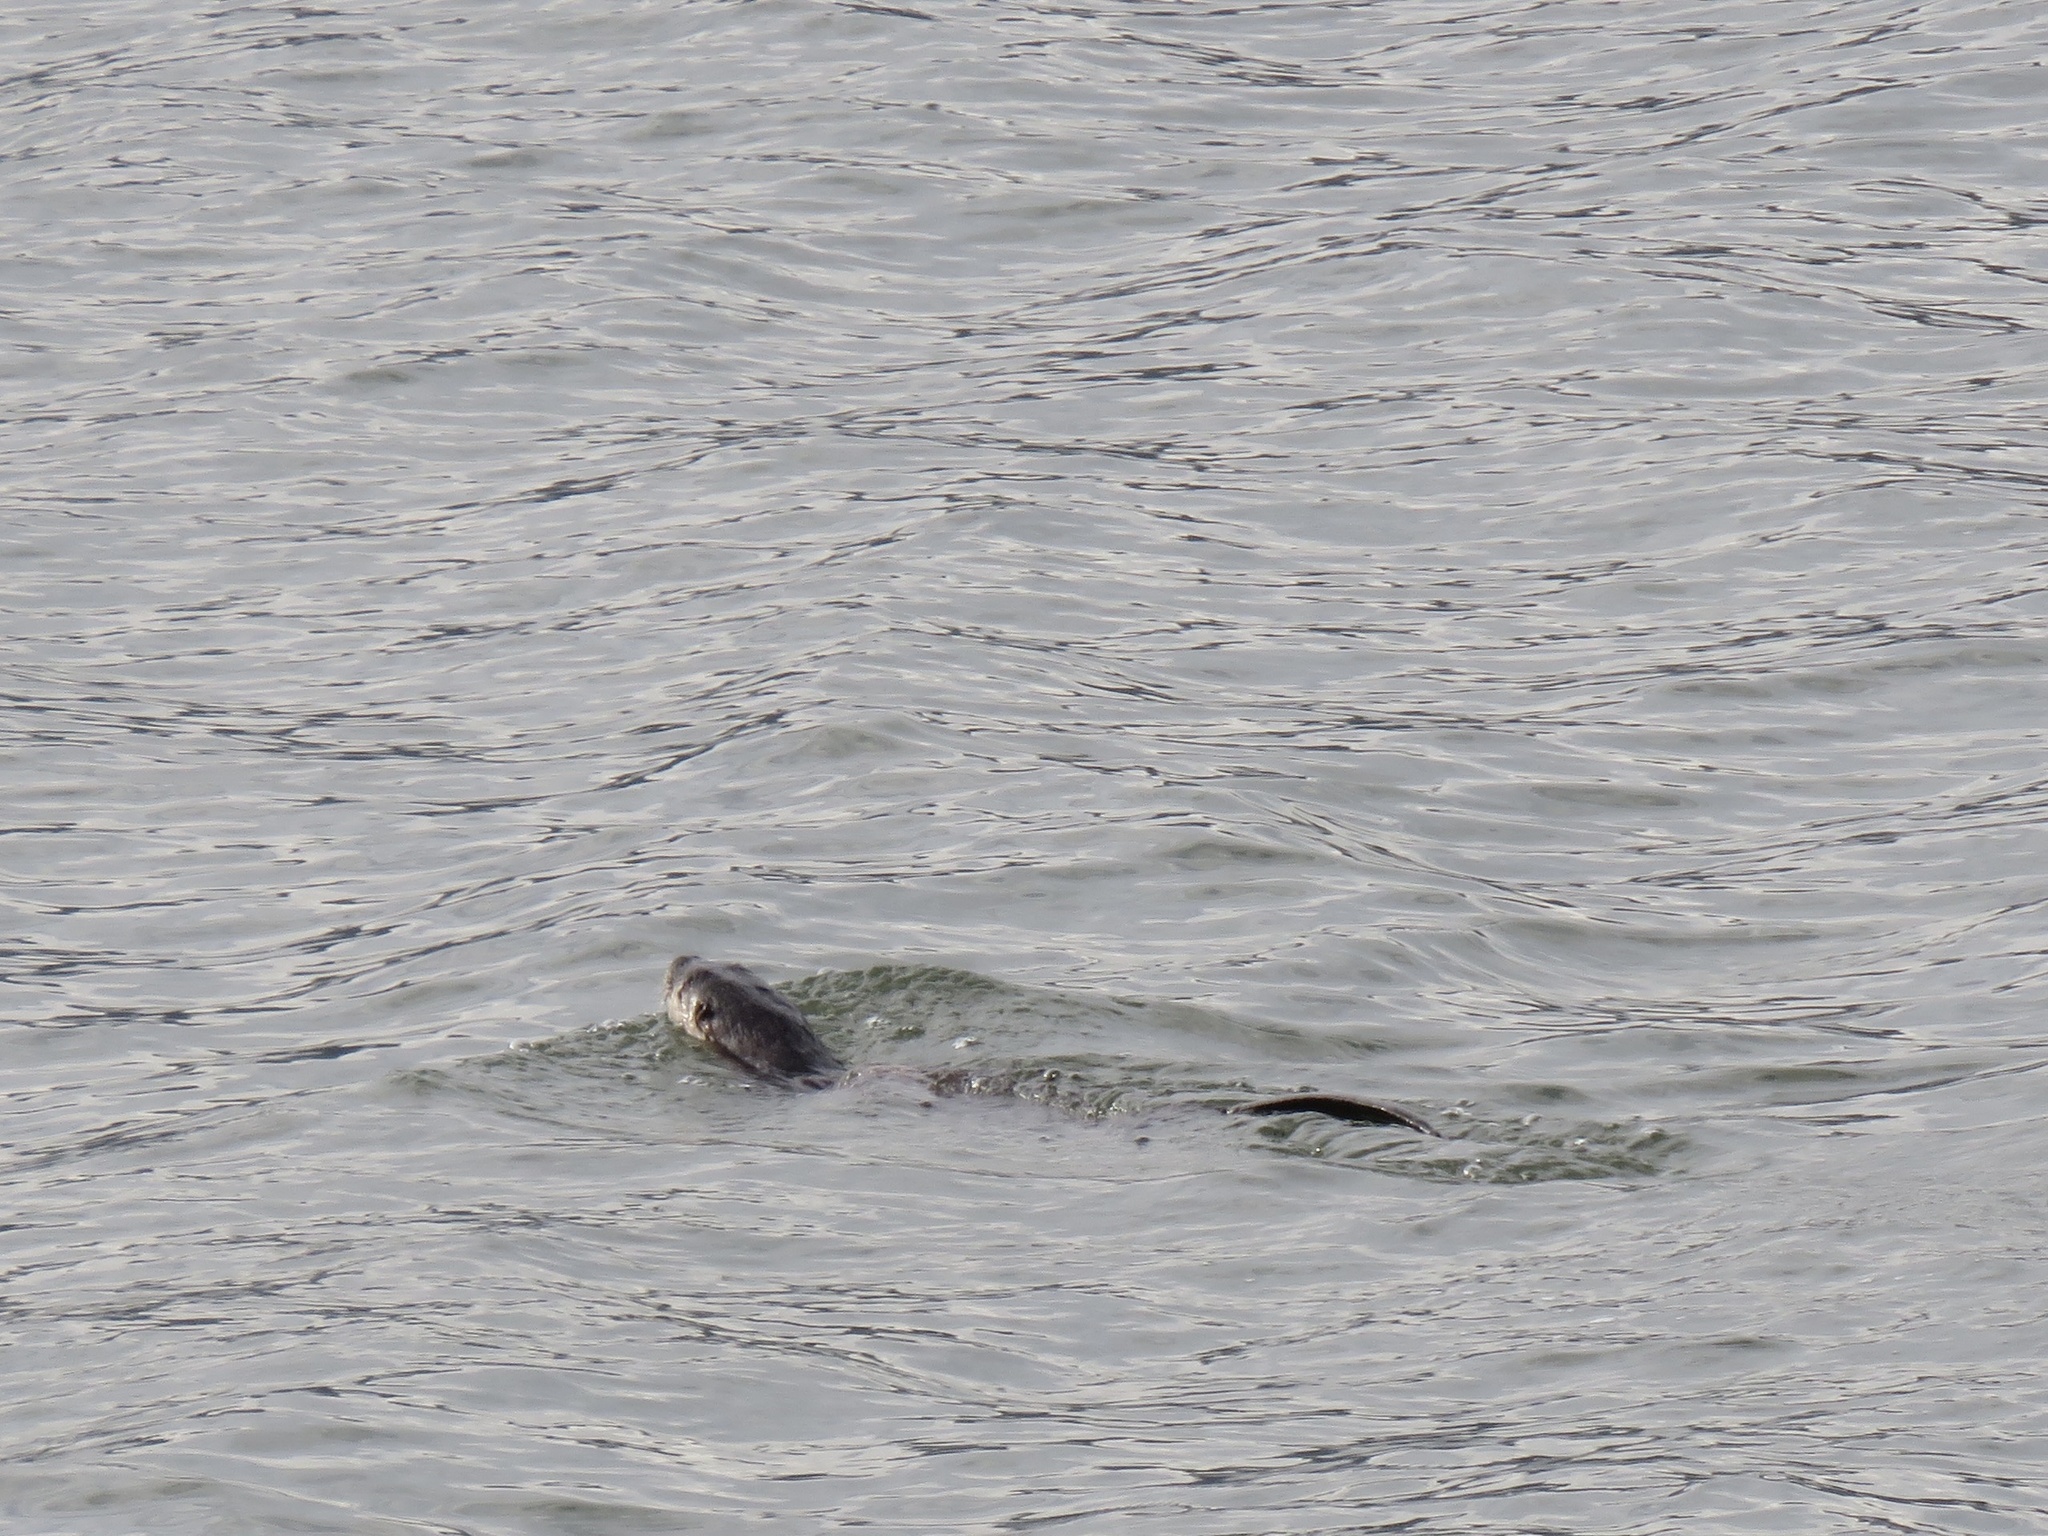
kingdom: Animalia
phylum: Chordata
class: Mammalia
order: Carnivora
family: Mustelidae
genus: Lontra
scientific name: Lontra canadensis
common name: North american river otter
